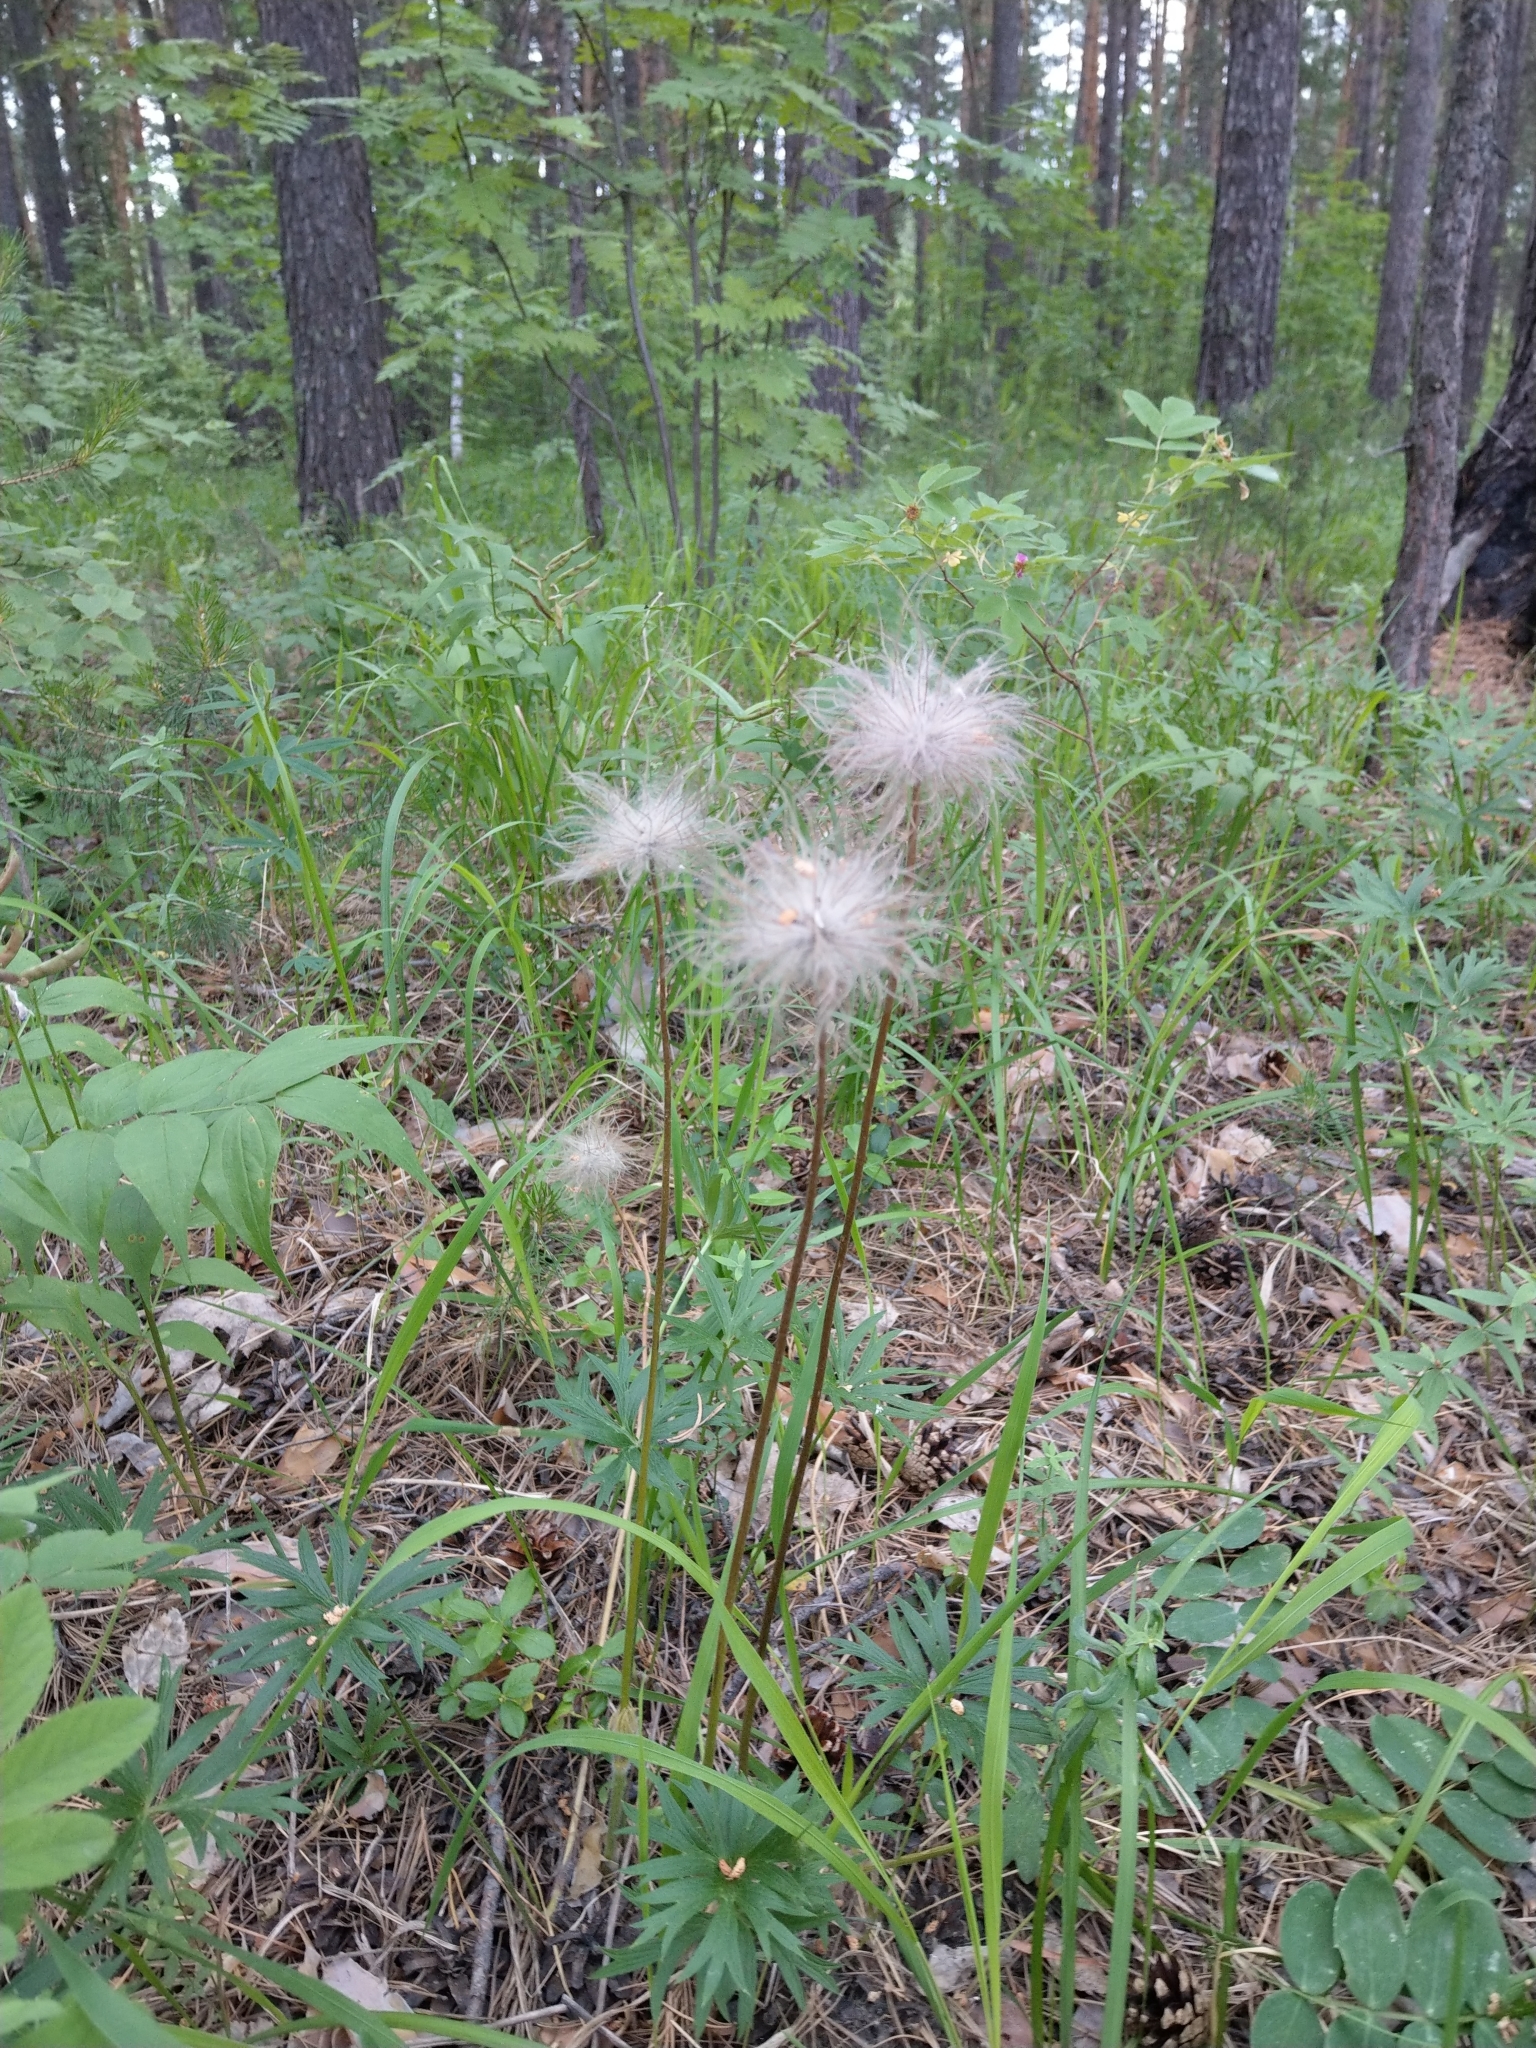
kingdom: Plantae
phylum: Tracheophyta
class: Magnoliopsida
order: Ranunculales
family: Ranunculaceae
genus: Pulsatilla
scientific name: Pulsatilla patens
